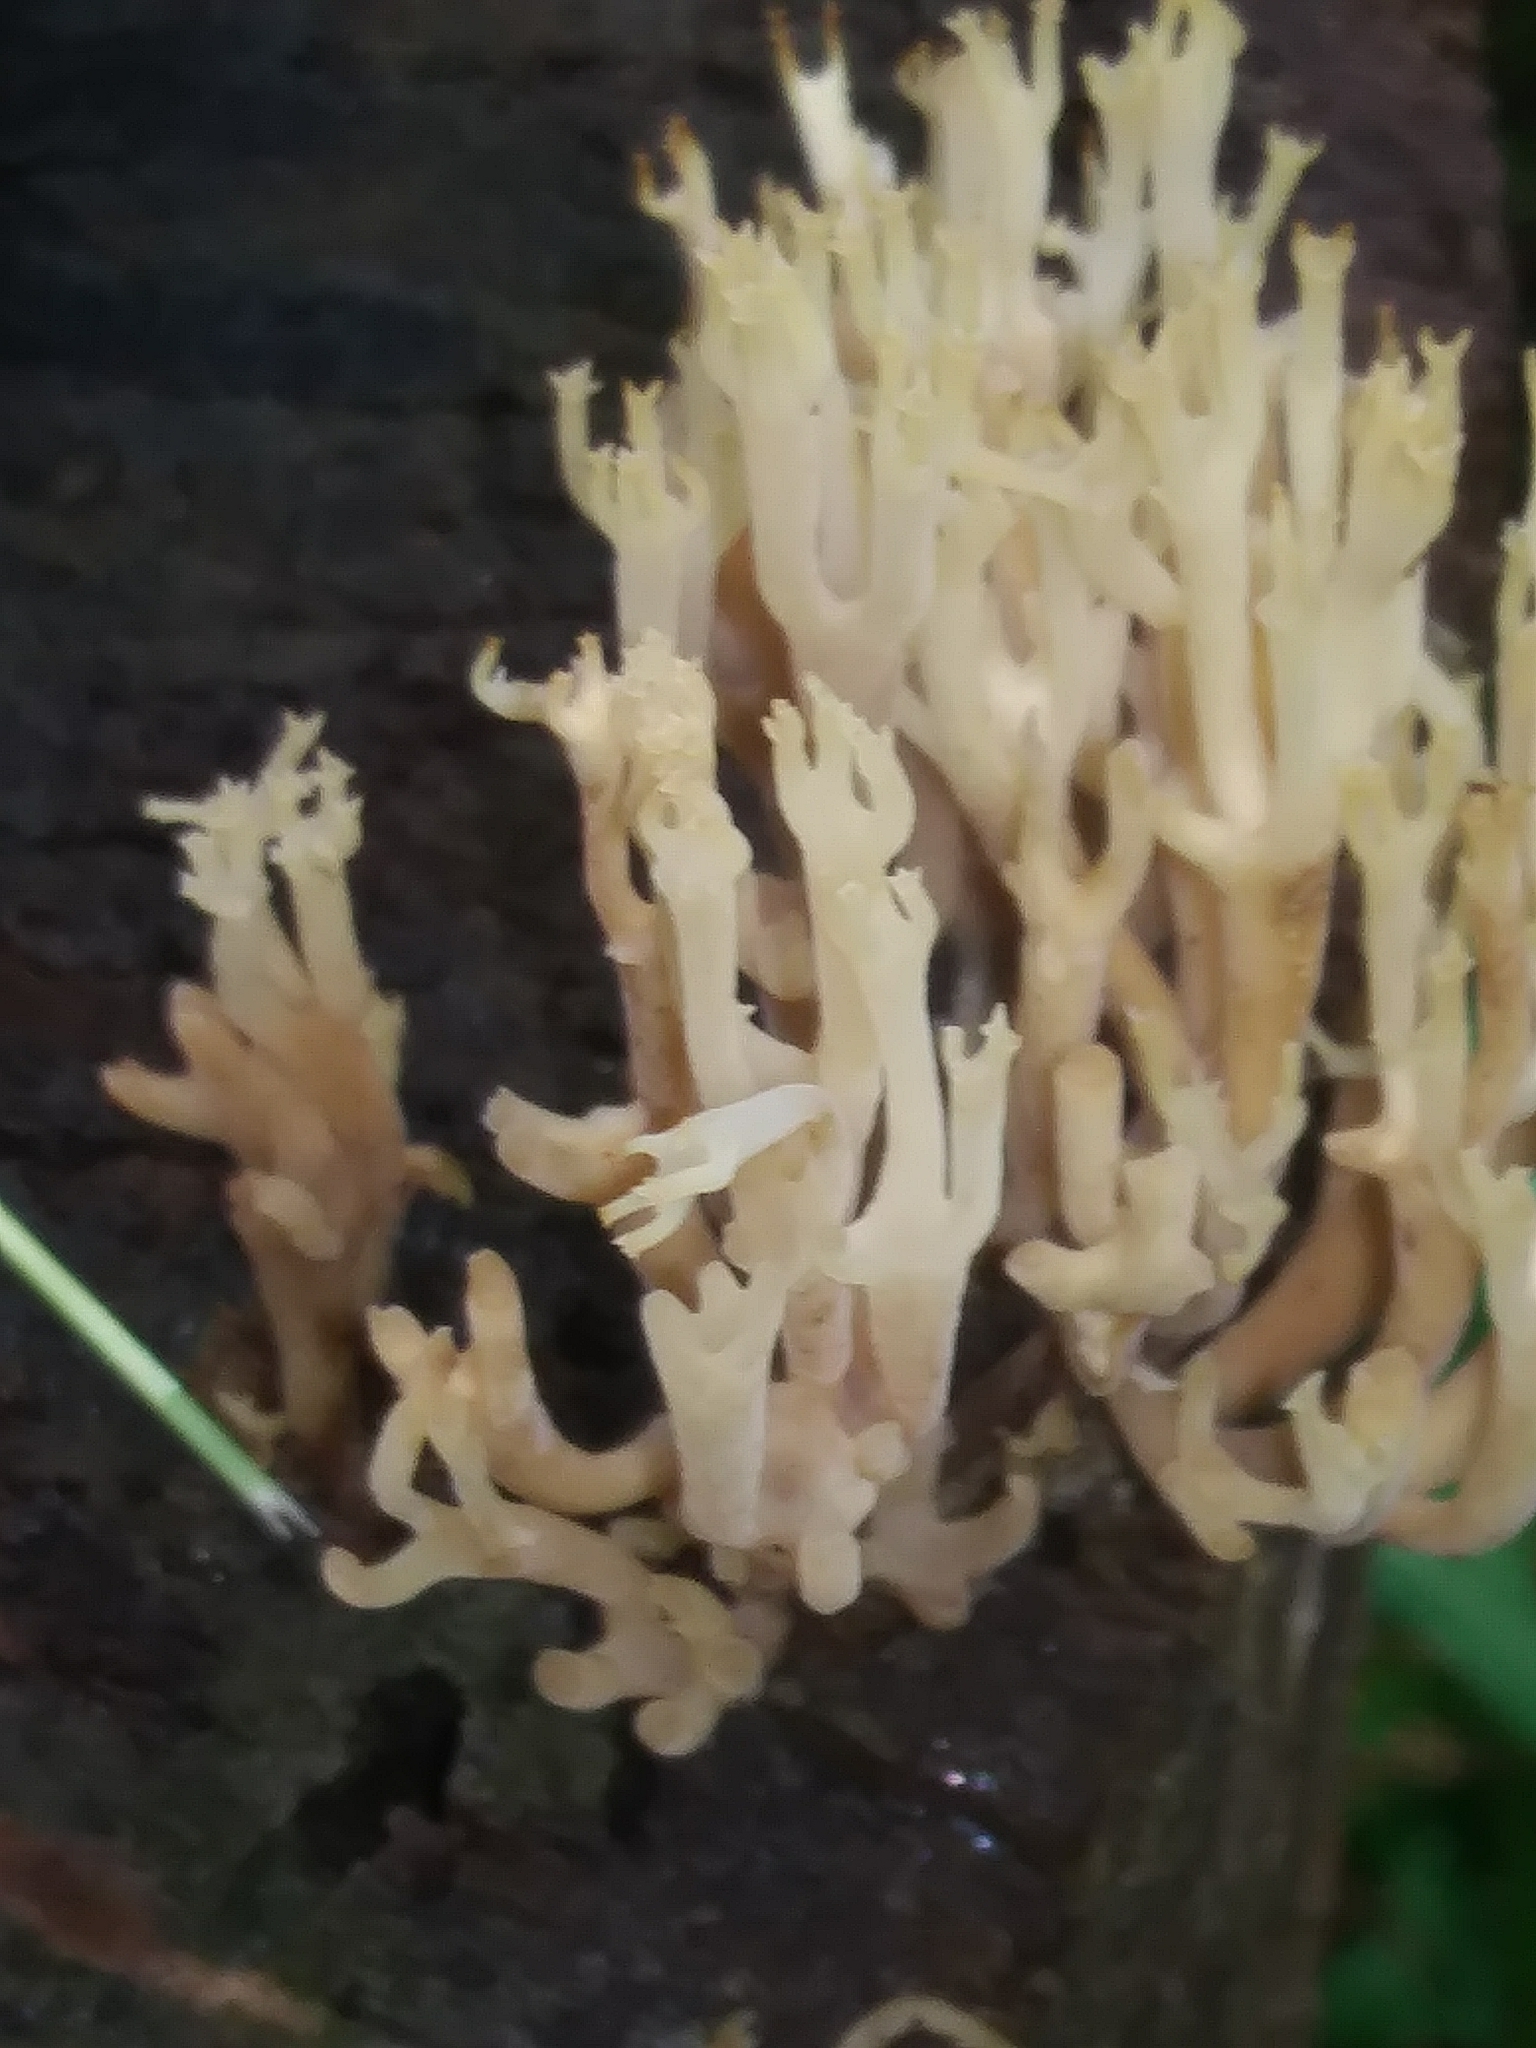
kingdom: Fungi
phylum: Basidiomycota
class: Agaricomycetes
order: Russulales
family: Auriscalpiaceae
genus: Artomyces
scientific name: Artomyces pyxidatus
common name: Crown-tipped coral fungus
